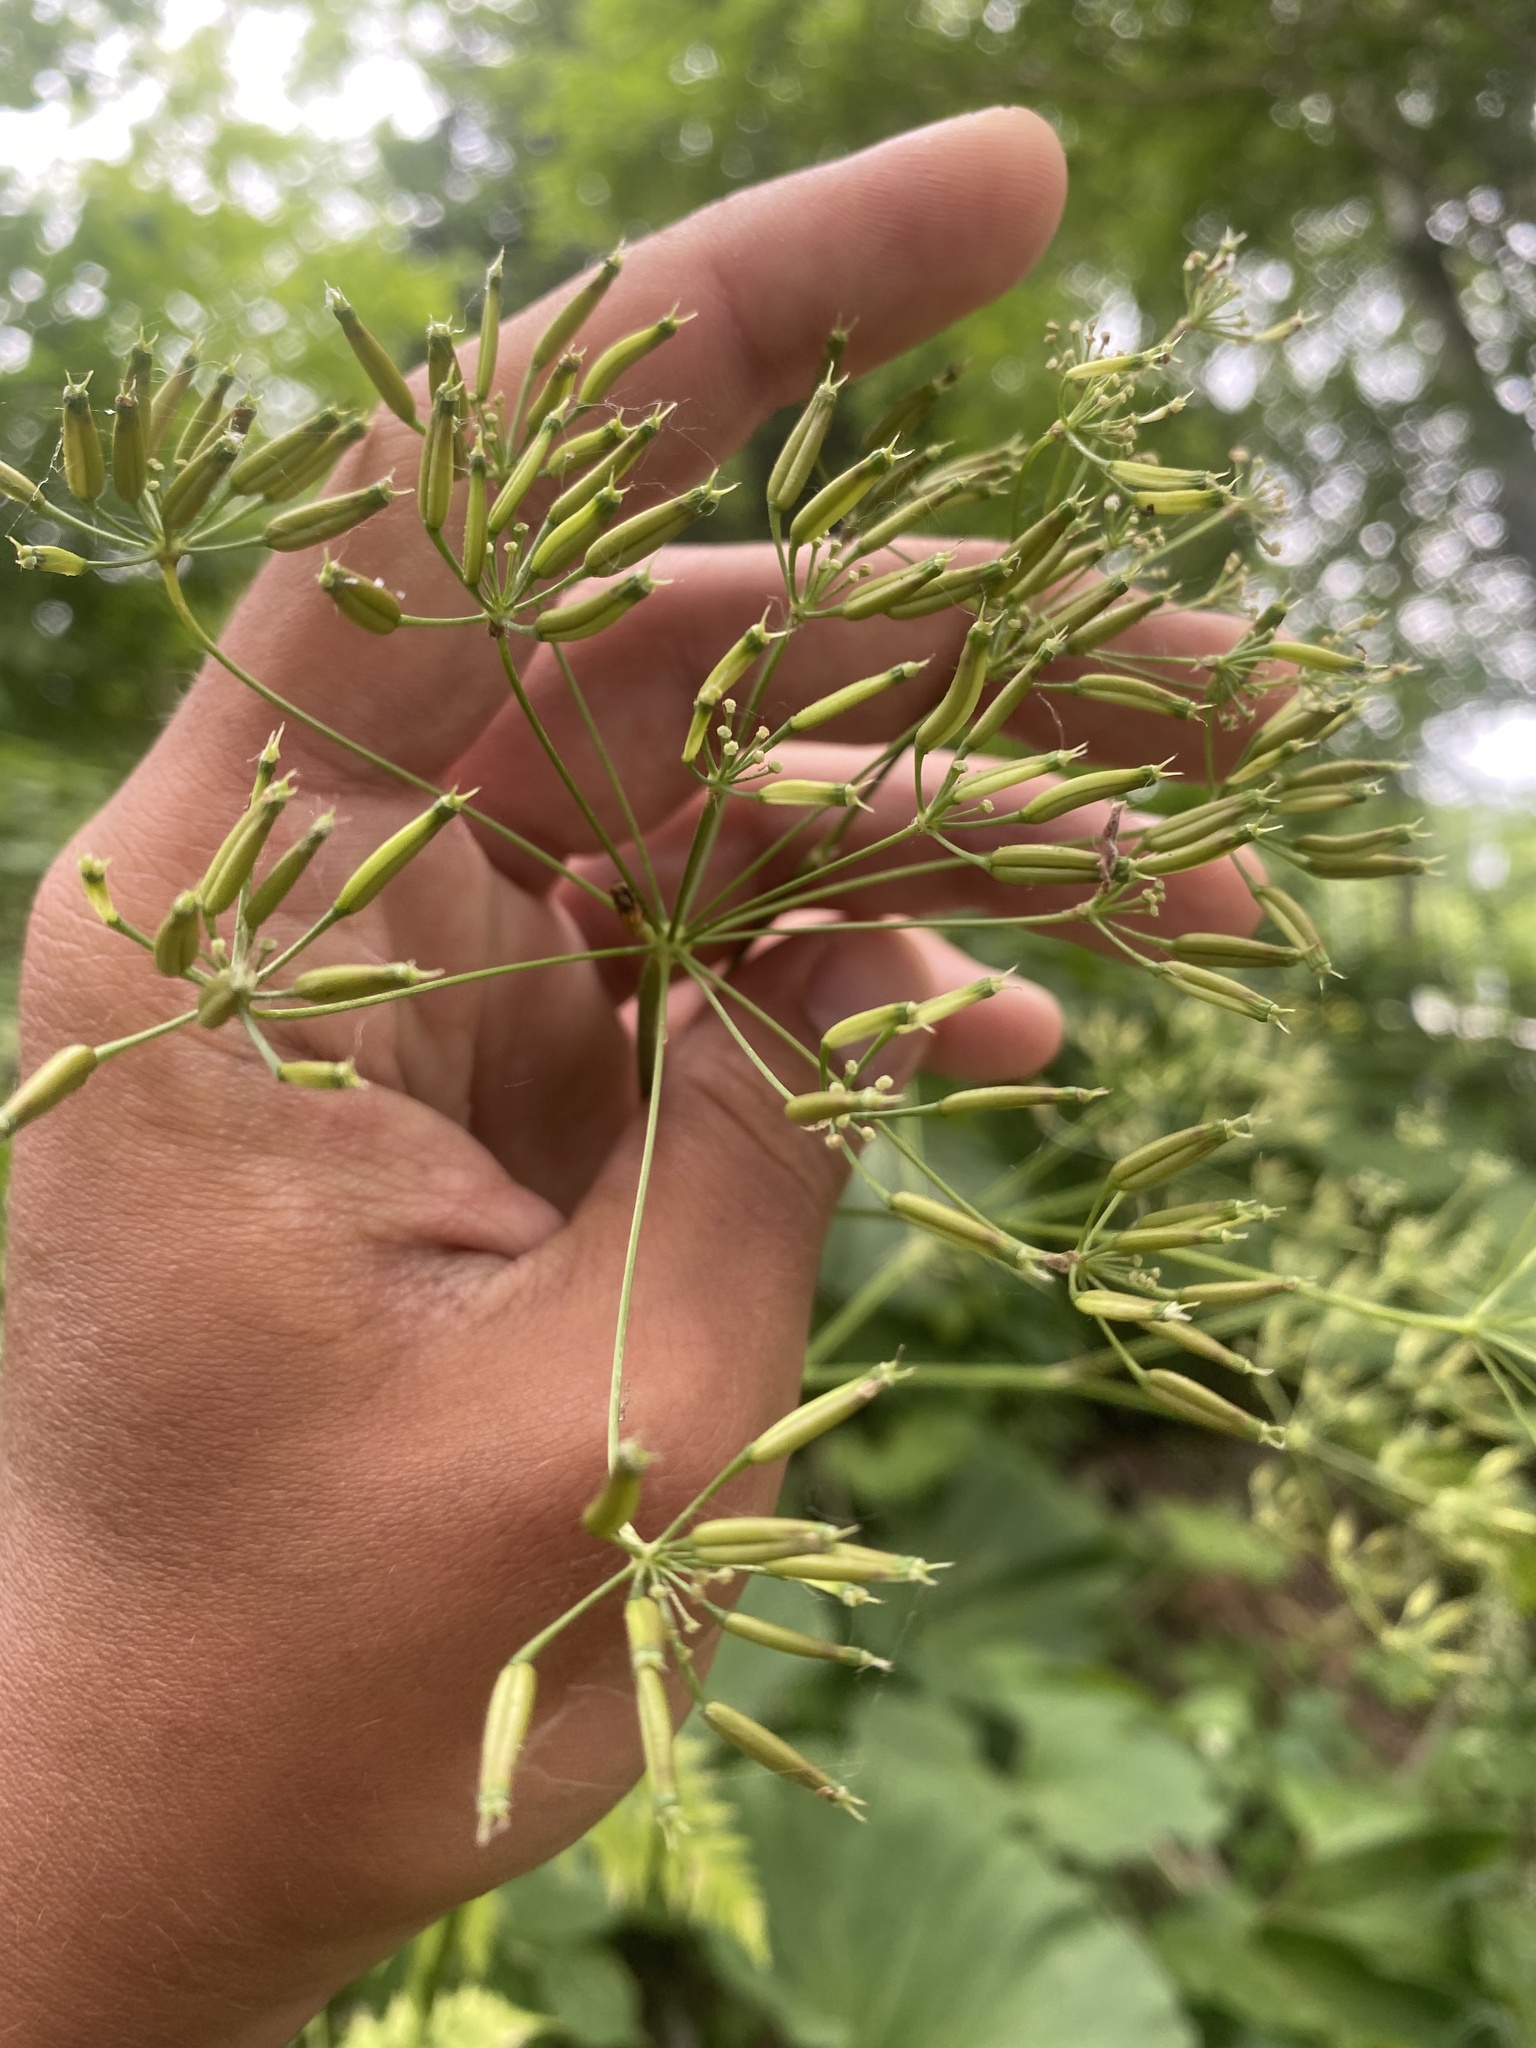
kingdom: Plantae
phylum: Tracheophyta
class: Magnoliopsida
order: Apiales
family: Apiaceae
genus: Anthriscus
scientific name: Anthriscus sylvestris
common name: Cow parsley
